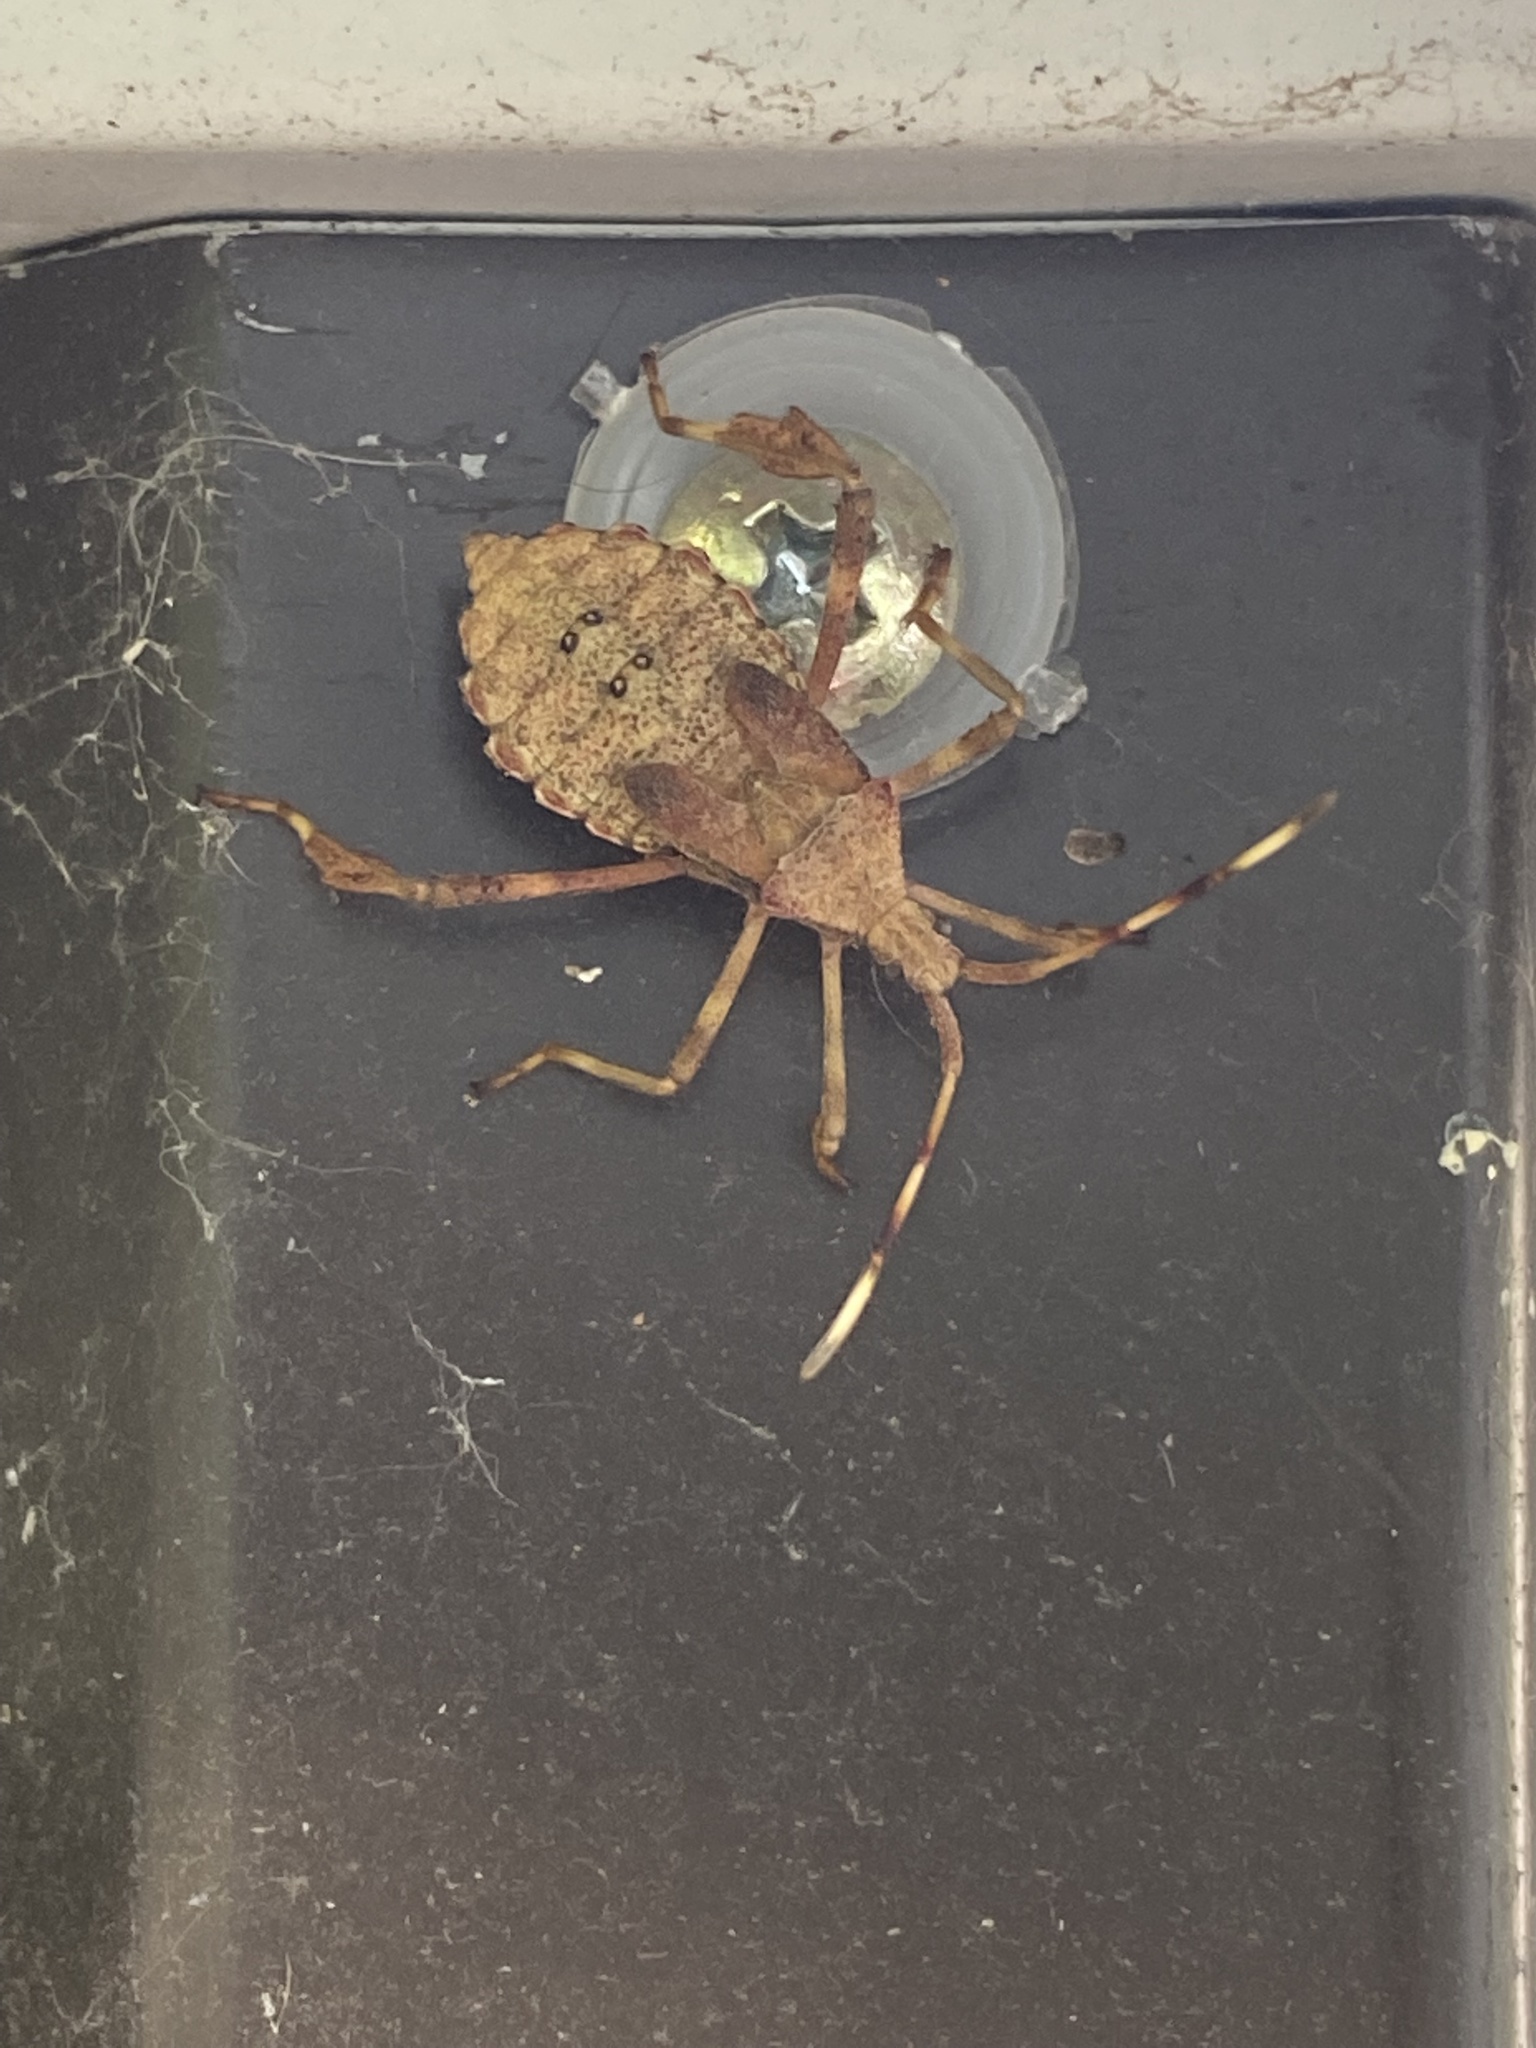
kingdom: Animalia
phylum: Arthropoda
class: Insecta
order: Hemiptera
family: Coreidae
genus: Acanthocephala
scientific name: Acanthocephala terminalis
